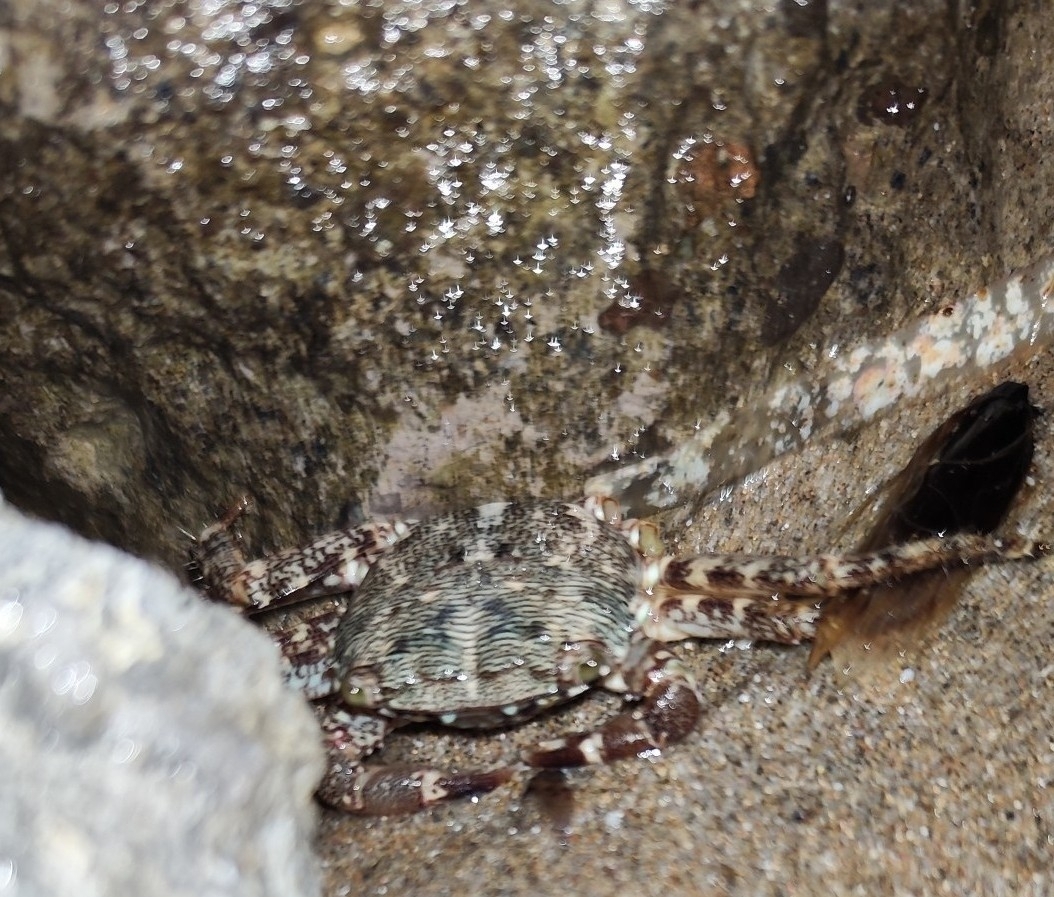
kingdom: Animalia
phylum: Arthropoda
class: Malacostraca
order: Decapoda
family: Grapsidae
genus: Pachygrapsus
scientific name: Pachygrapsus marmoratus
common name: Marbled rock crab
